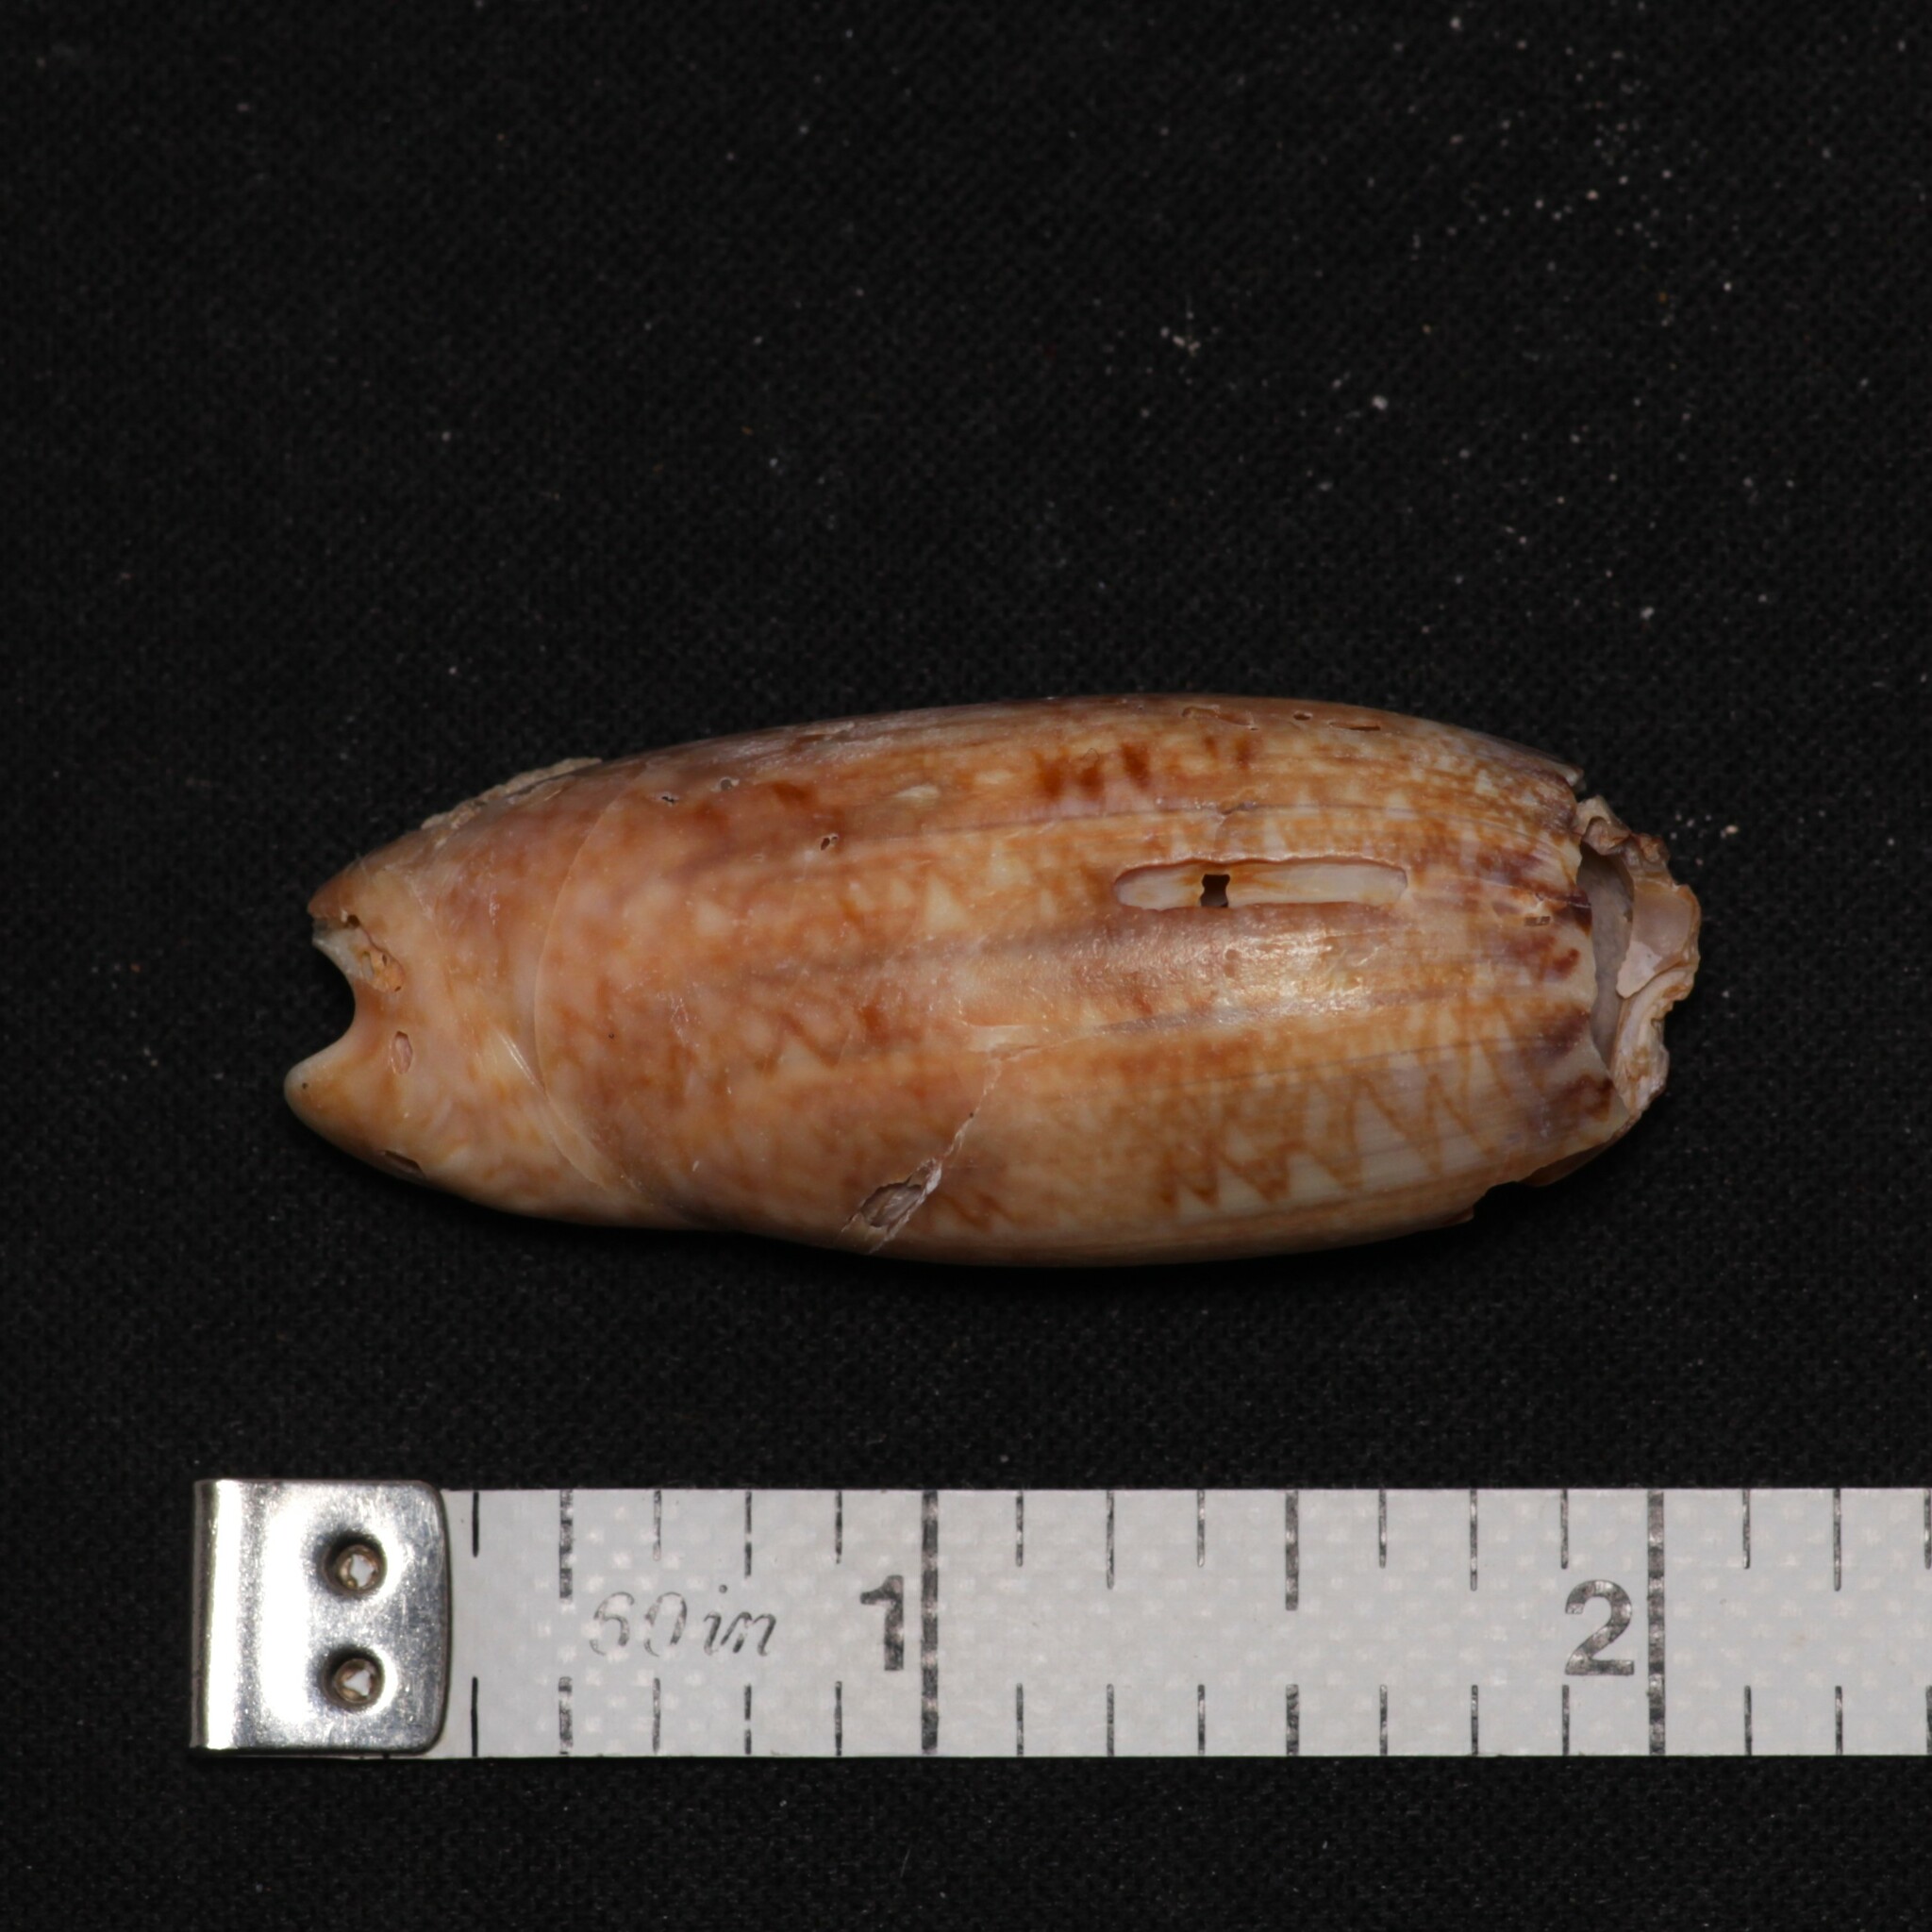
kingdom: Animalia
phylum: Mollusca
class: Gastropoda
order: Neogastropoda
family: Olividae
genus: Oliva
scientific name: Oliva sayana
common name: Lettered olive
